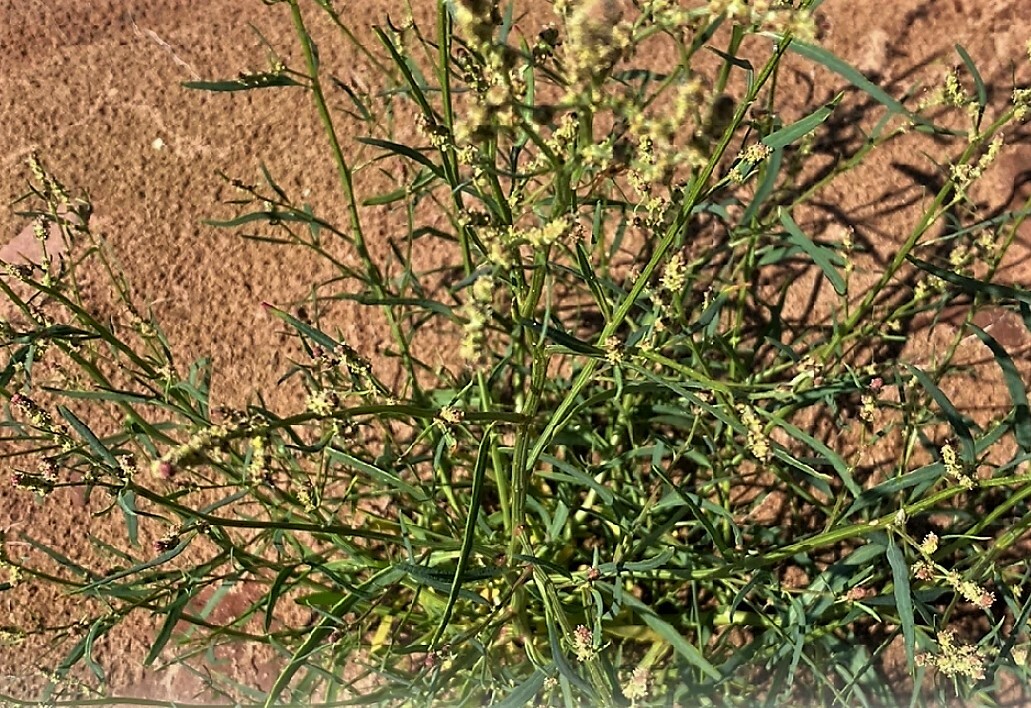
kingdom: Plantae
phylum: Tracheophyta
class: Magnoliopsida
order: Caryophyllales
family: Amaranthaceae
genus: Atriplex
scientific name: Atriplex littoralis
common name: Grass-leaved orache
